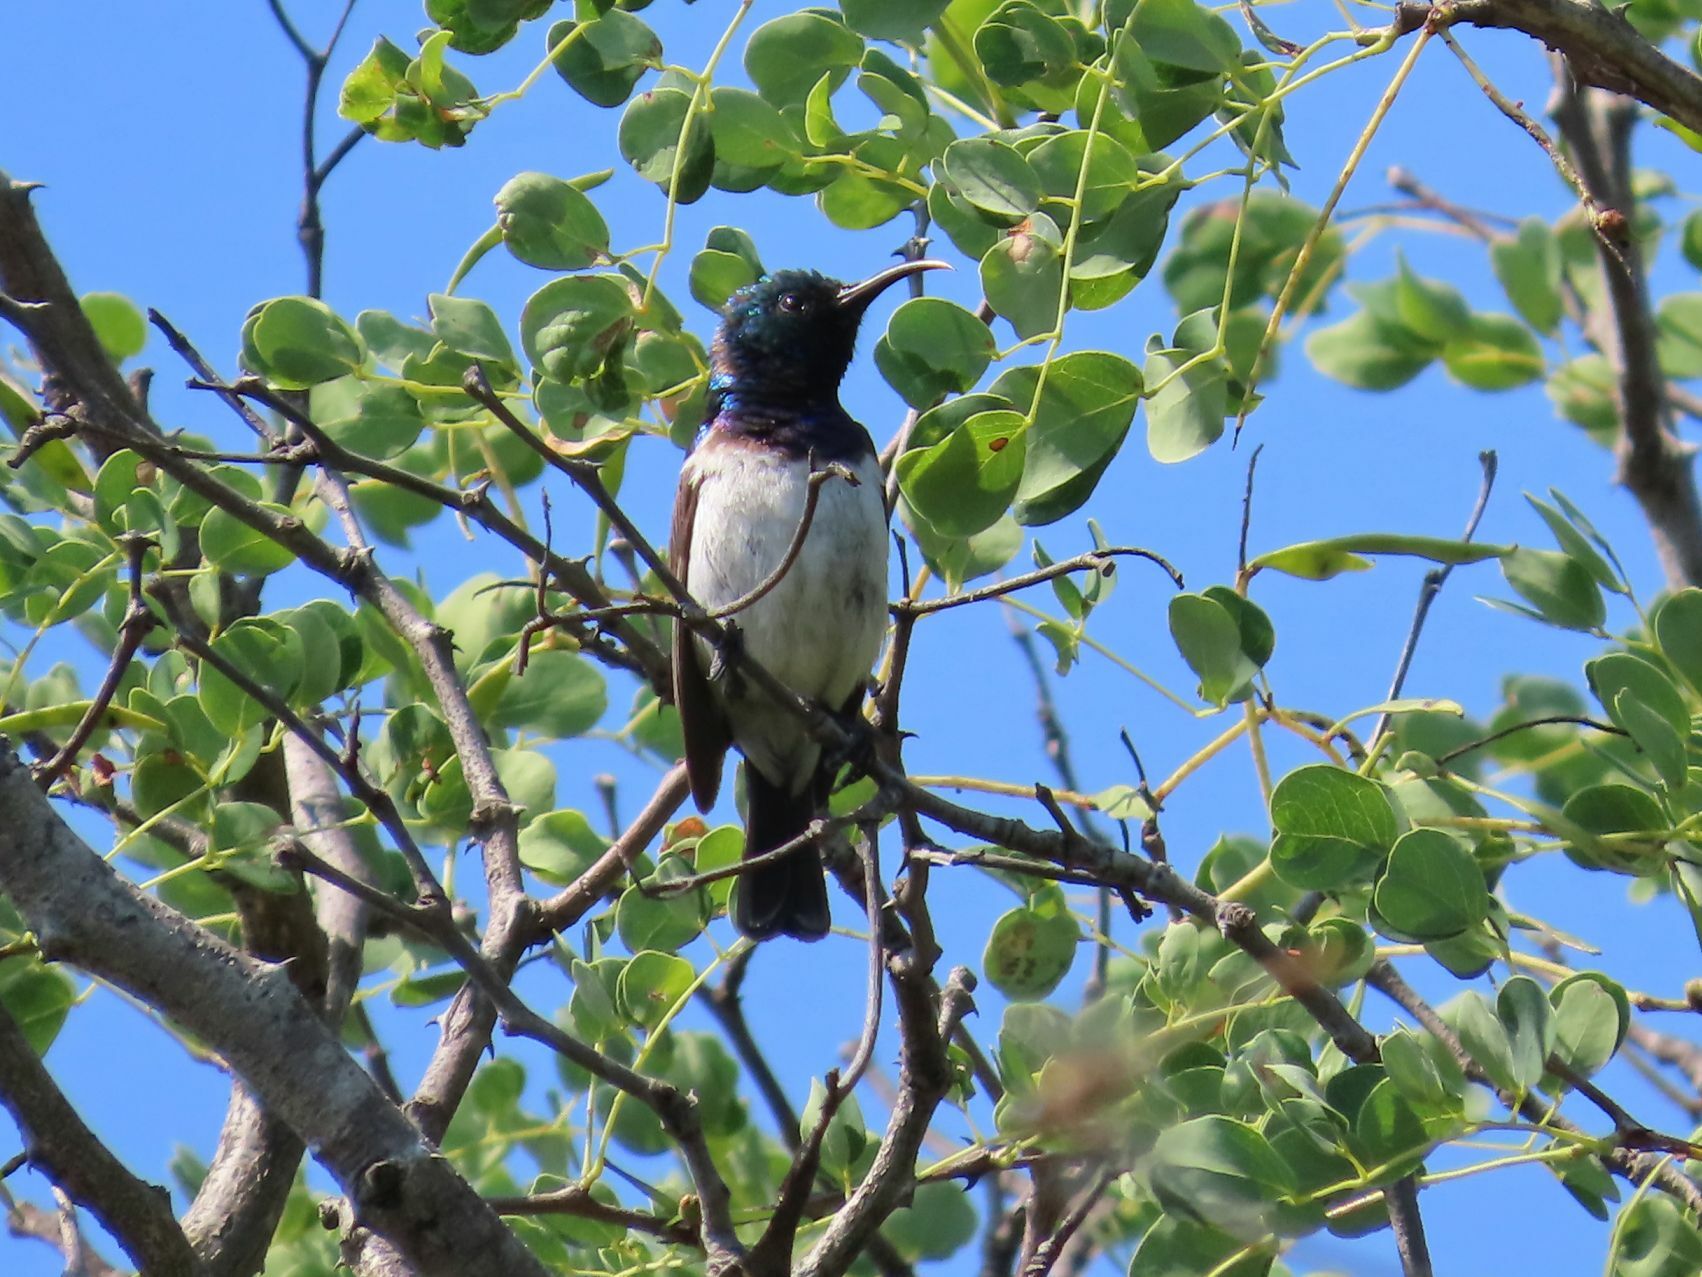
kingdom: Animalia
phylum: Chordata
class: Aves
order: Passeriformes
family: Nectariniidae
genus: Cinnyris
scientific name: Cinnyris talatala
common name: White-bellied sunbird
